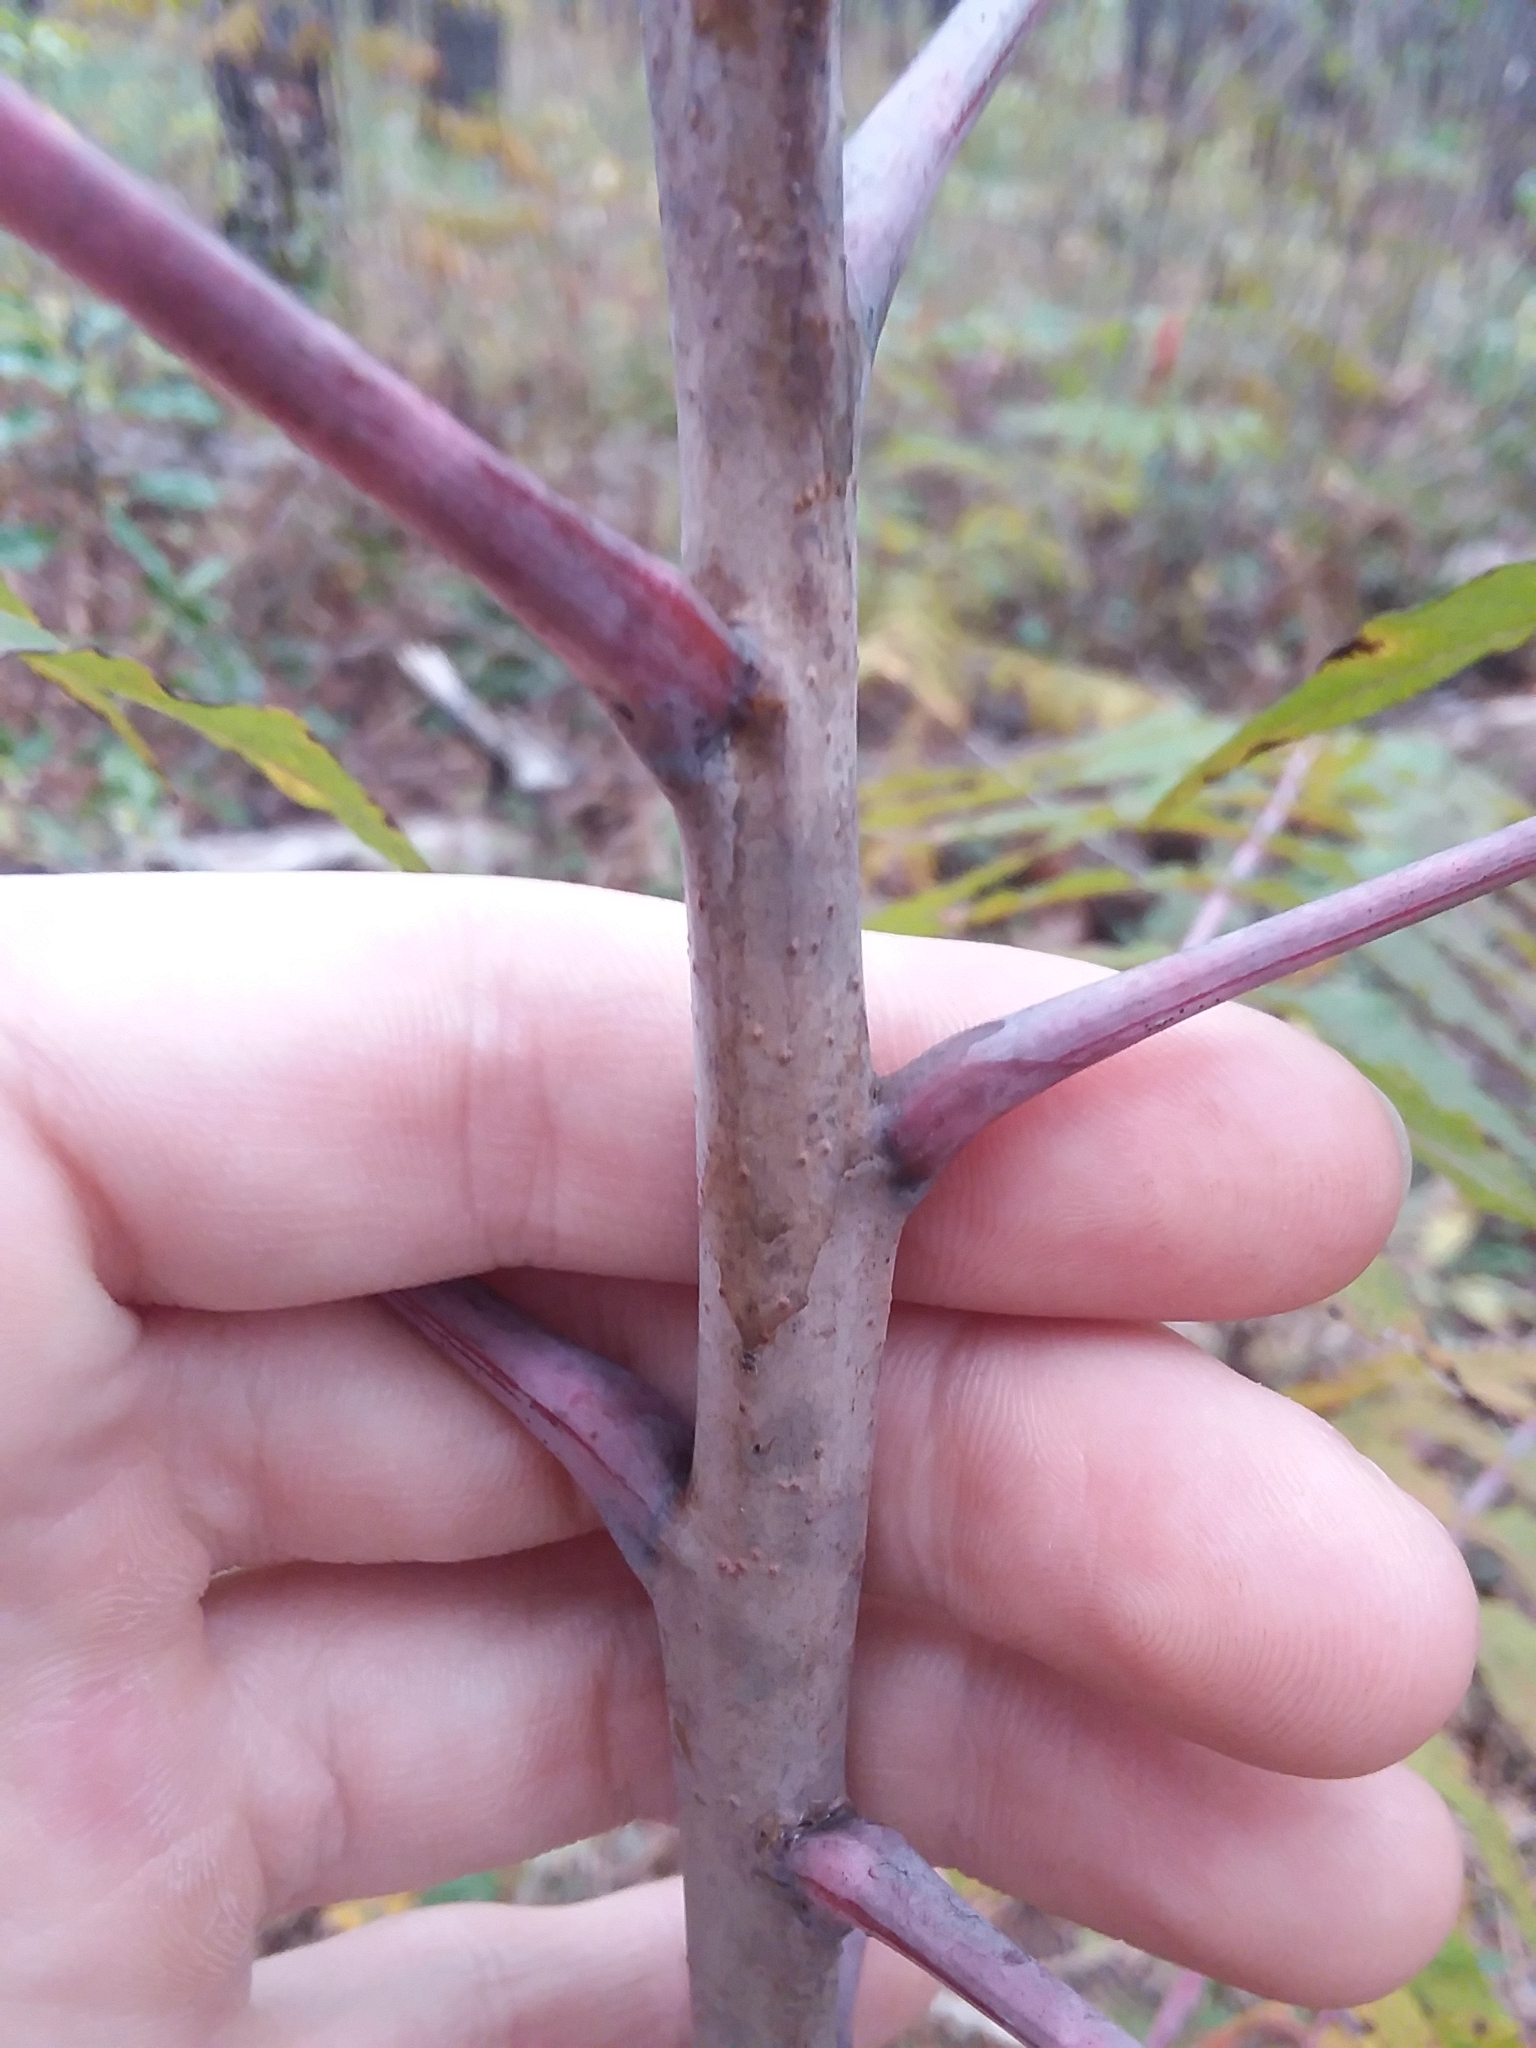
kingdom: Plantae
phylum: Tracheophyta
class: Magnoliopsida
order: Sapindales
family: Anacardiaceae
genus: Rhus
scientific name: Rhus glabra
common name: Scarlet sumac
